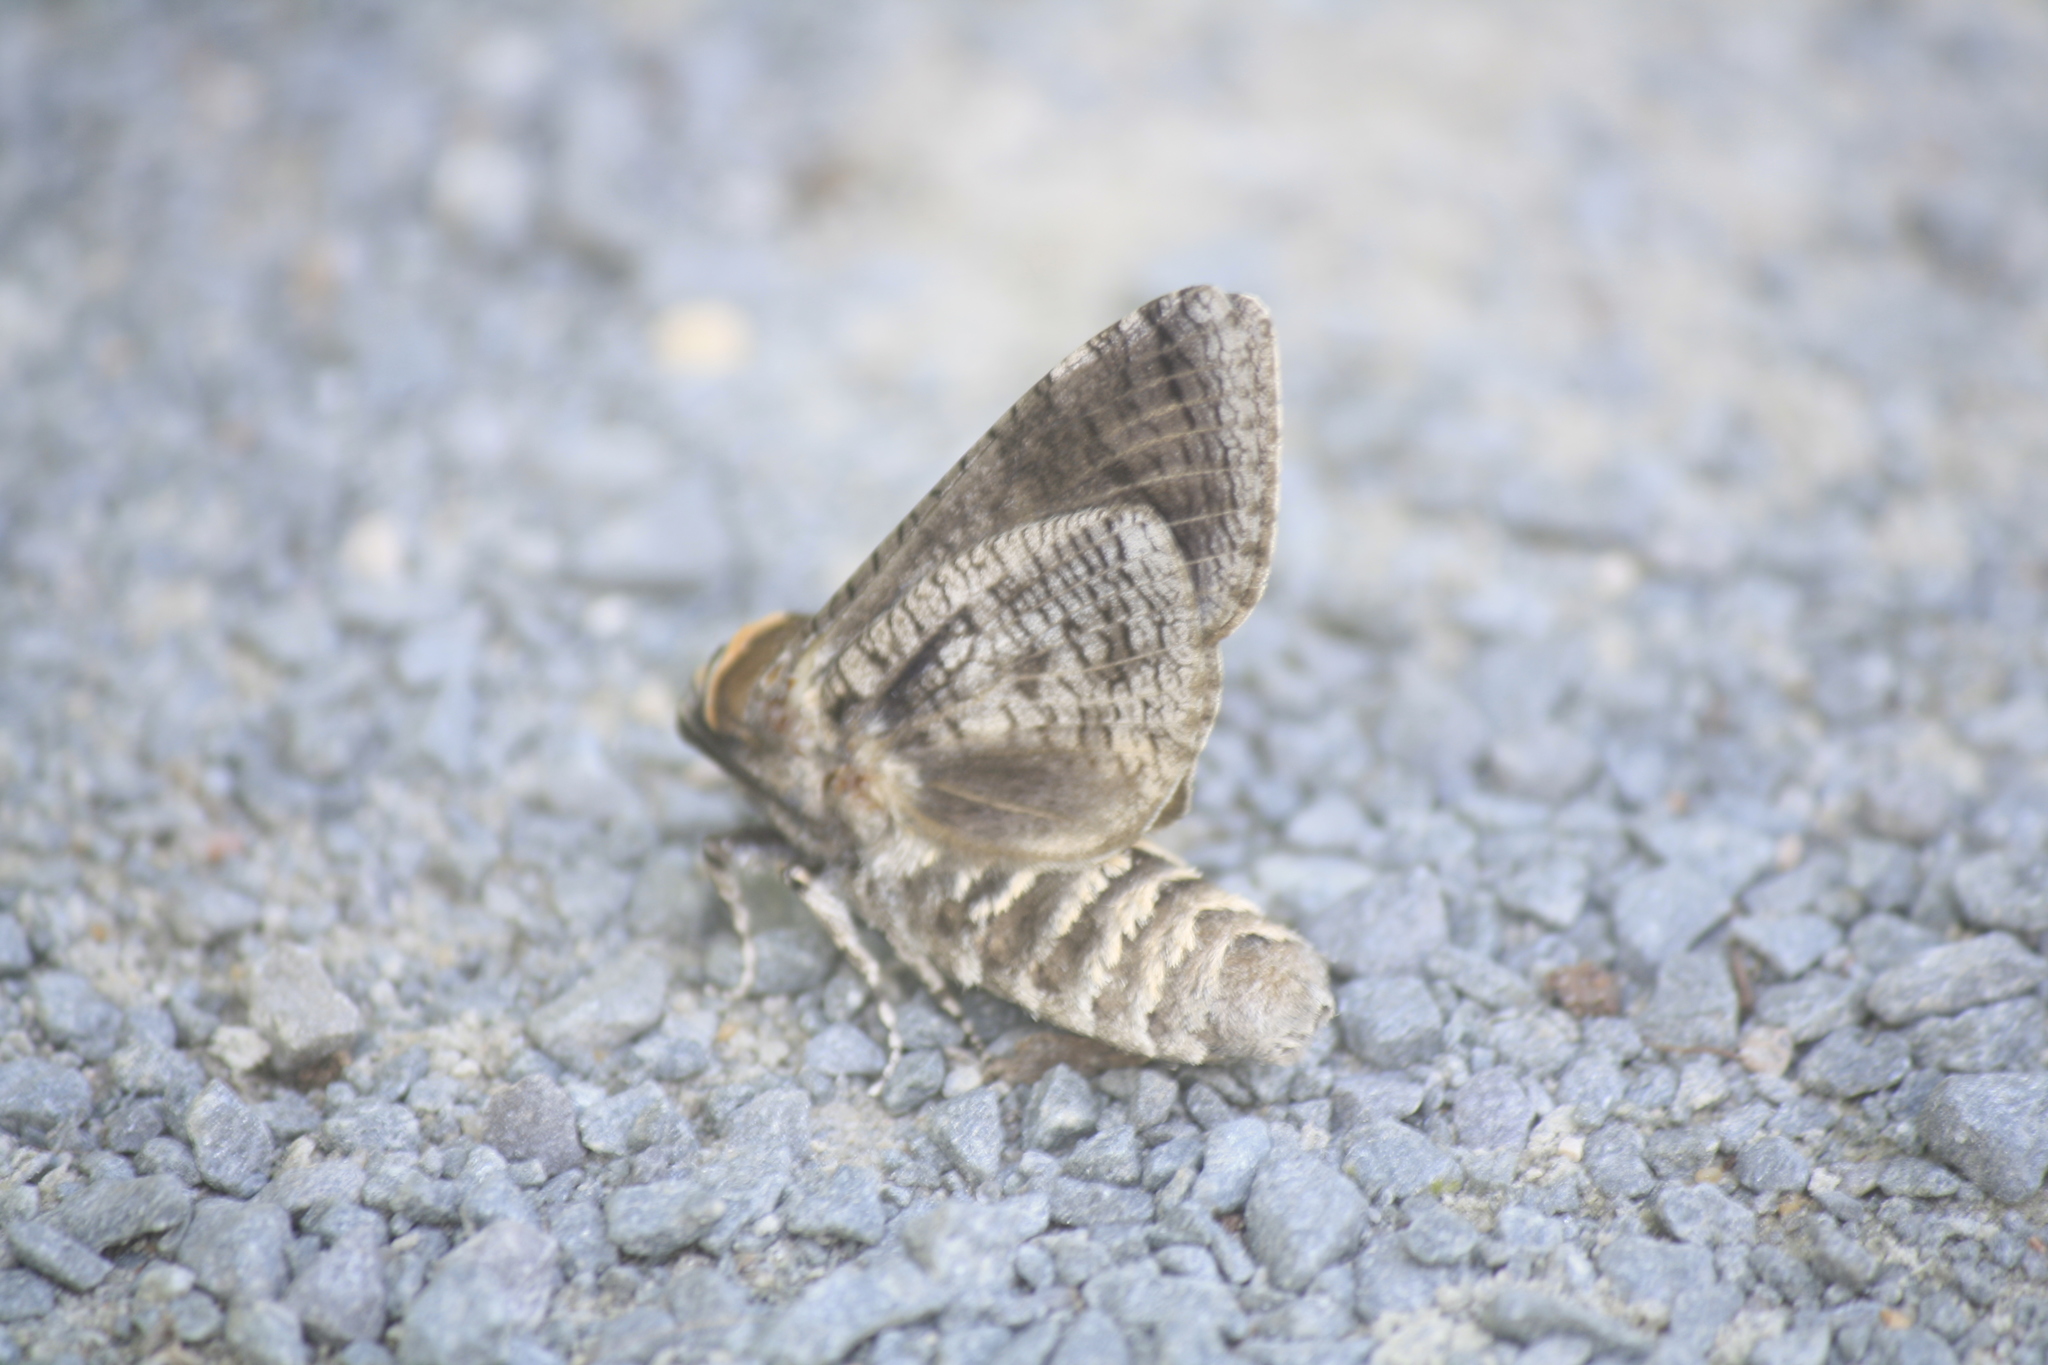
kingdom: Animalia
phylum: Arthropoda
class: Insecta
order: Lepidoptera
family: Cossidae
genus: Cossus
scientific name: Cossus cossus
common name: Goat moth
